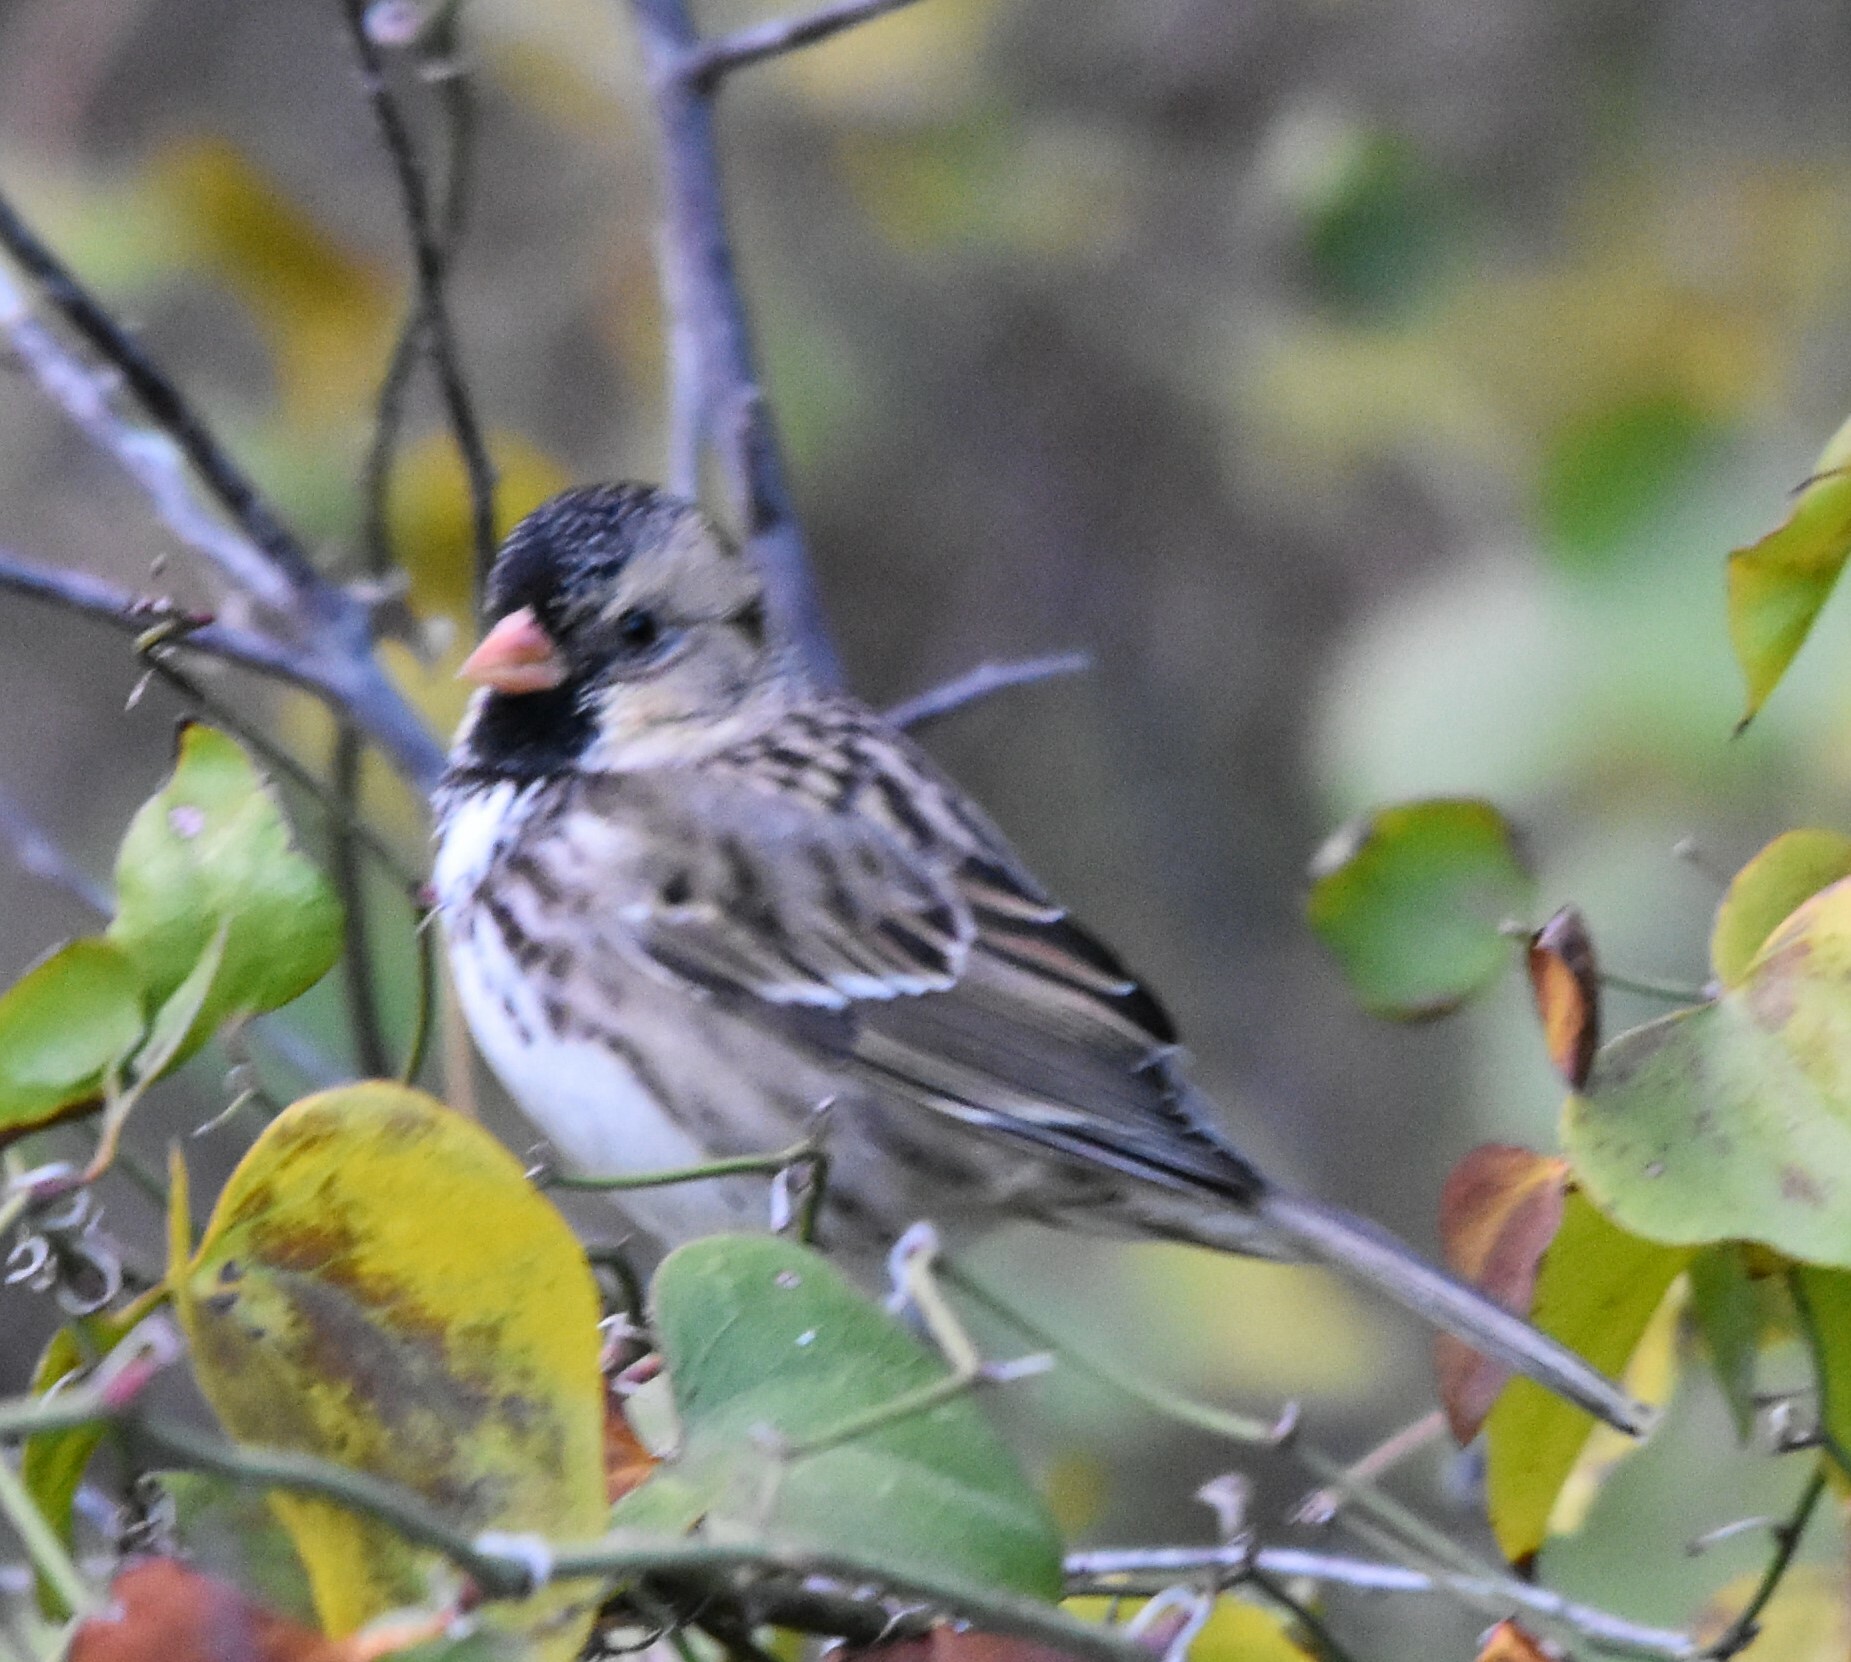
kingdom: Animalia
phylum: Chordata
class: Aves
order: Passeriformes
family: Passerellidae
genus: Zonotrichia
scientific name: Zonotrichia querula
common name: Harris's sparrow
